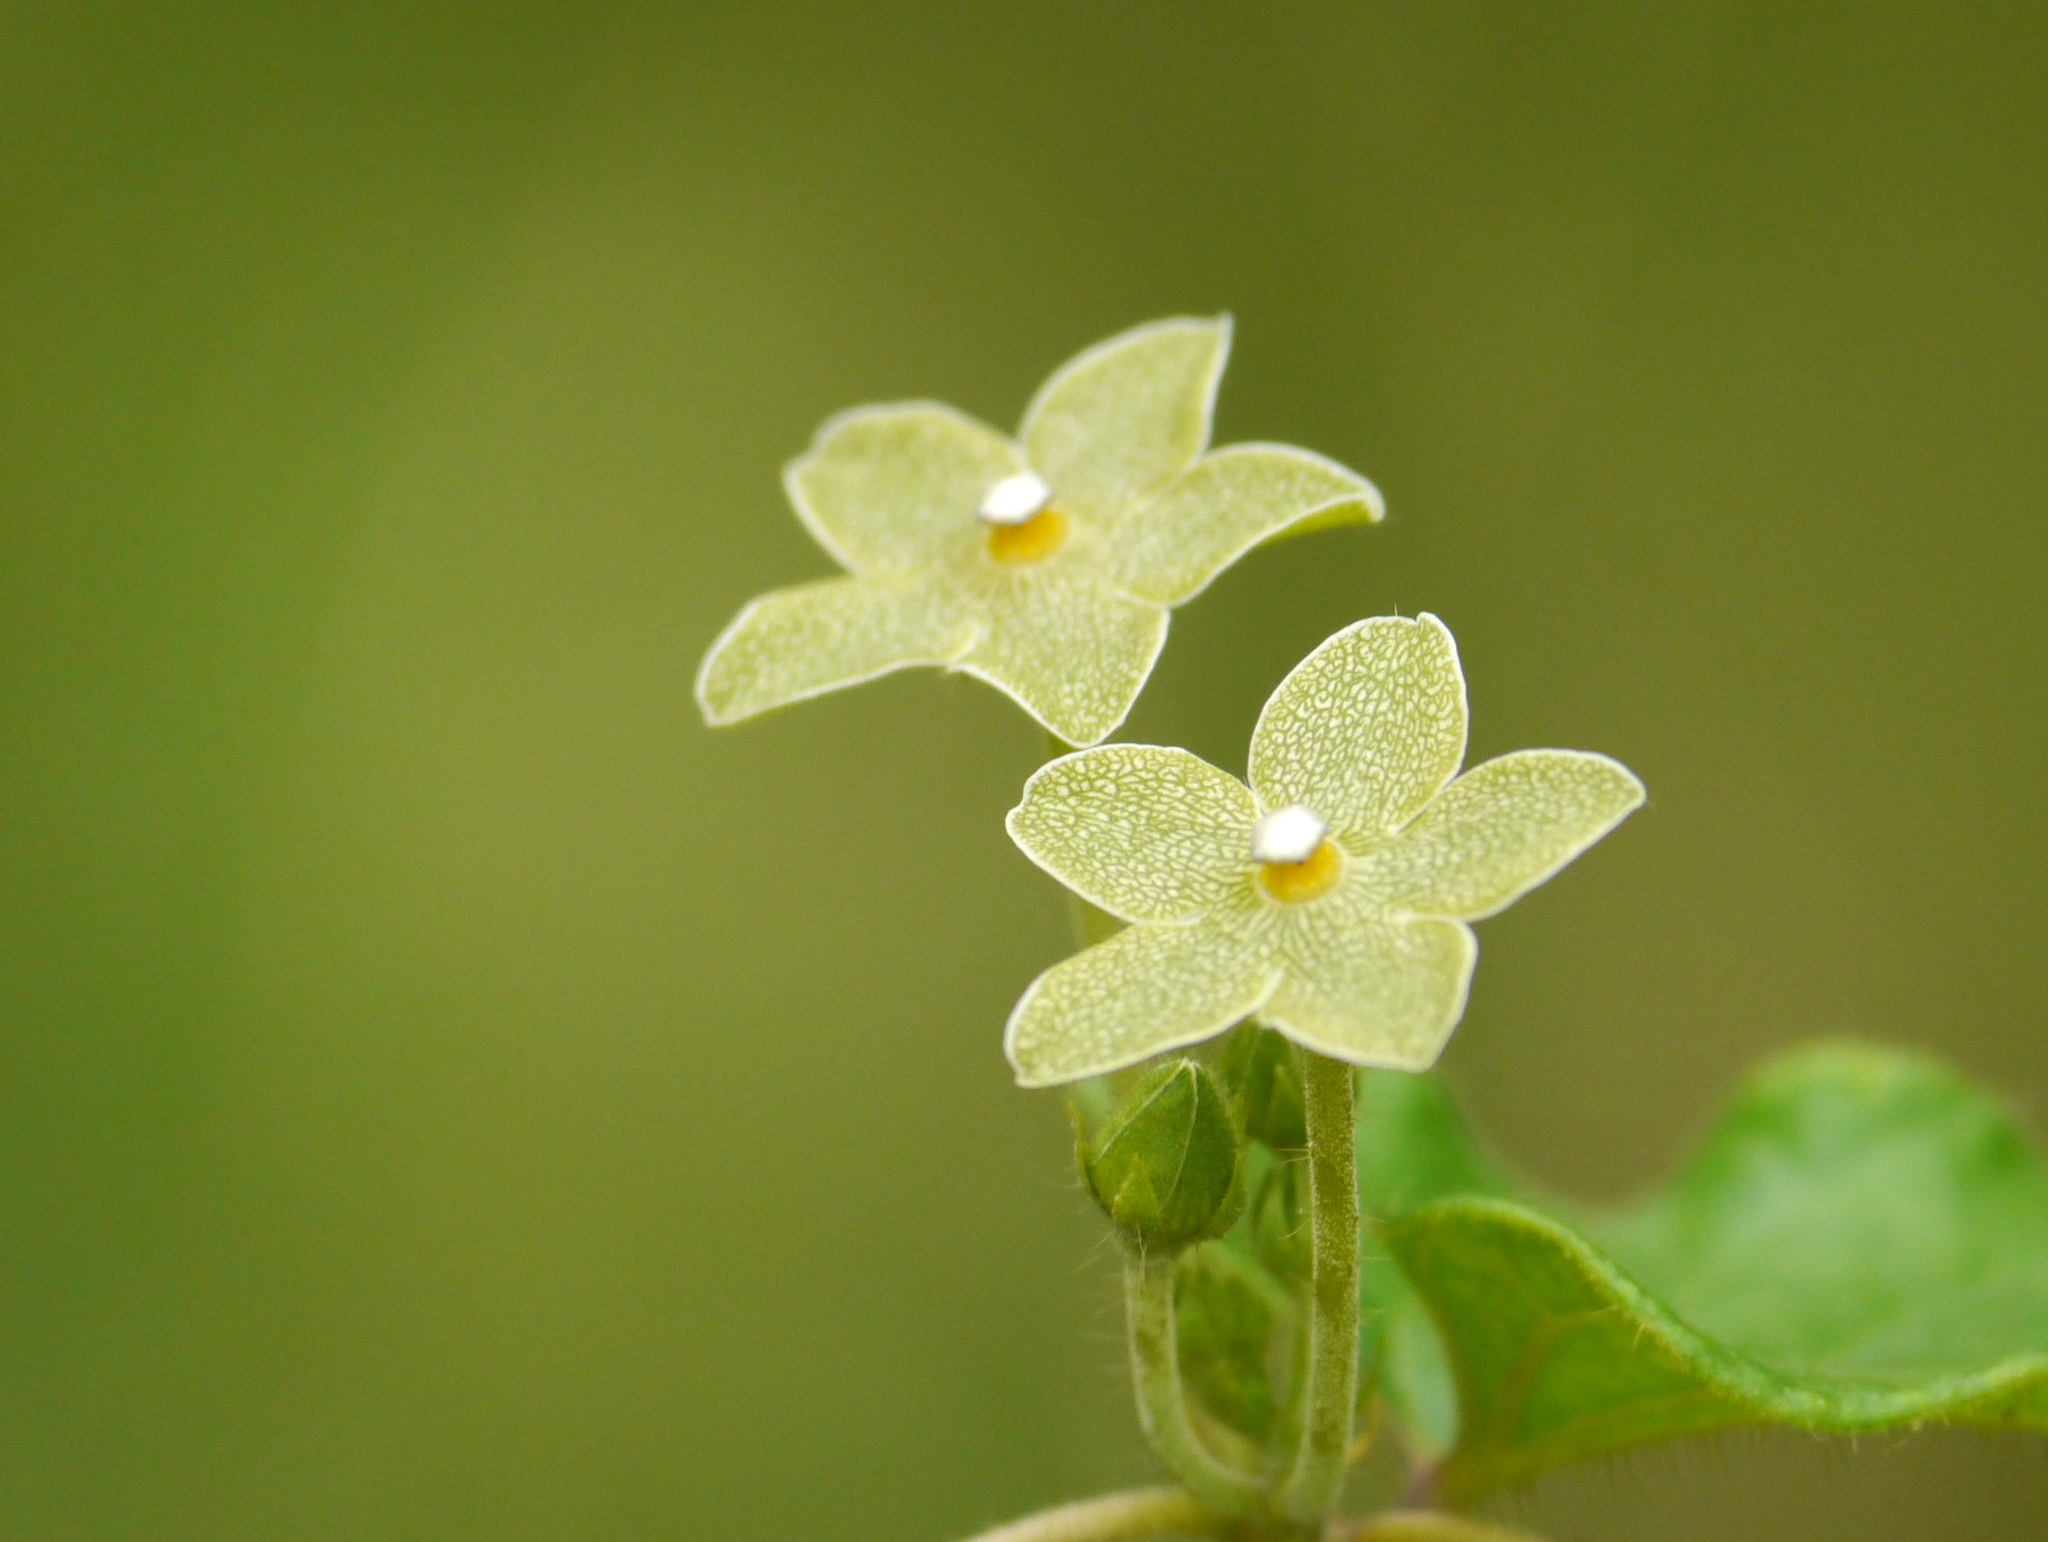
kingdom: Plantae
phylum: Tracheophyta
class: Magnoliopsida
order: Gentianales
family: Apocynaceae
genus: Dictyanthus
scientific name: Dictyanthus reticulatus
